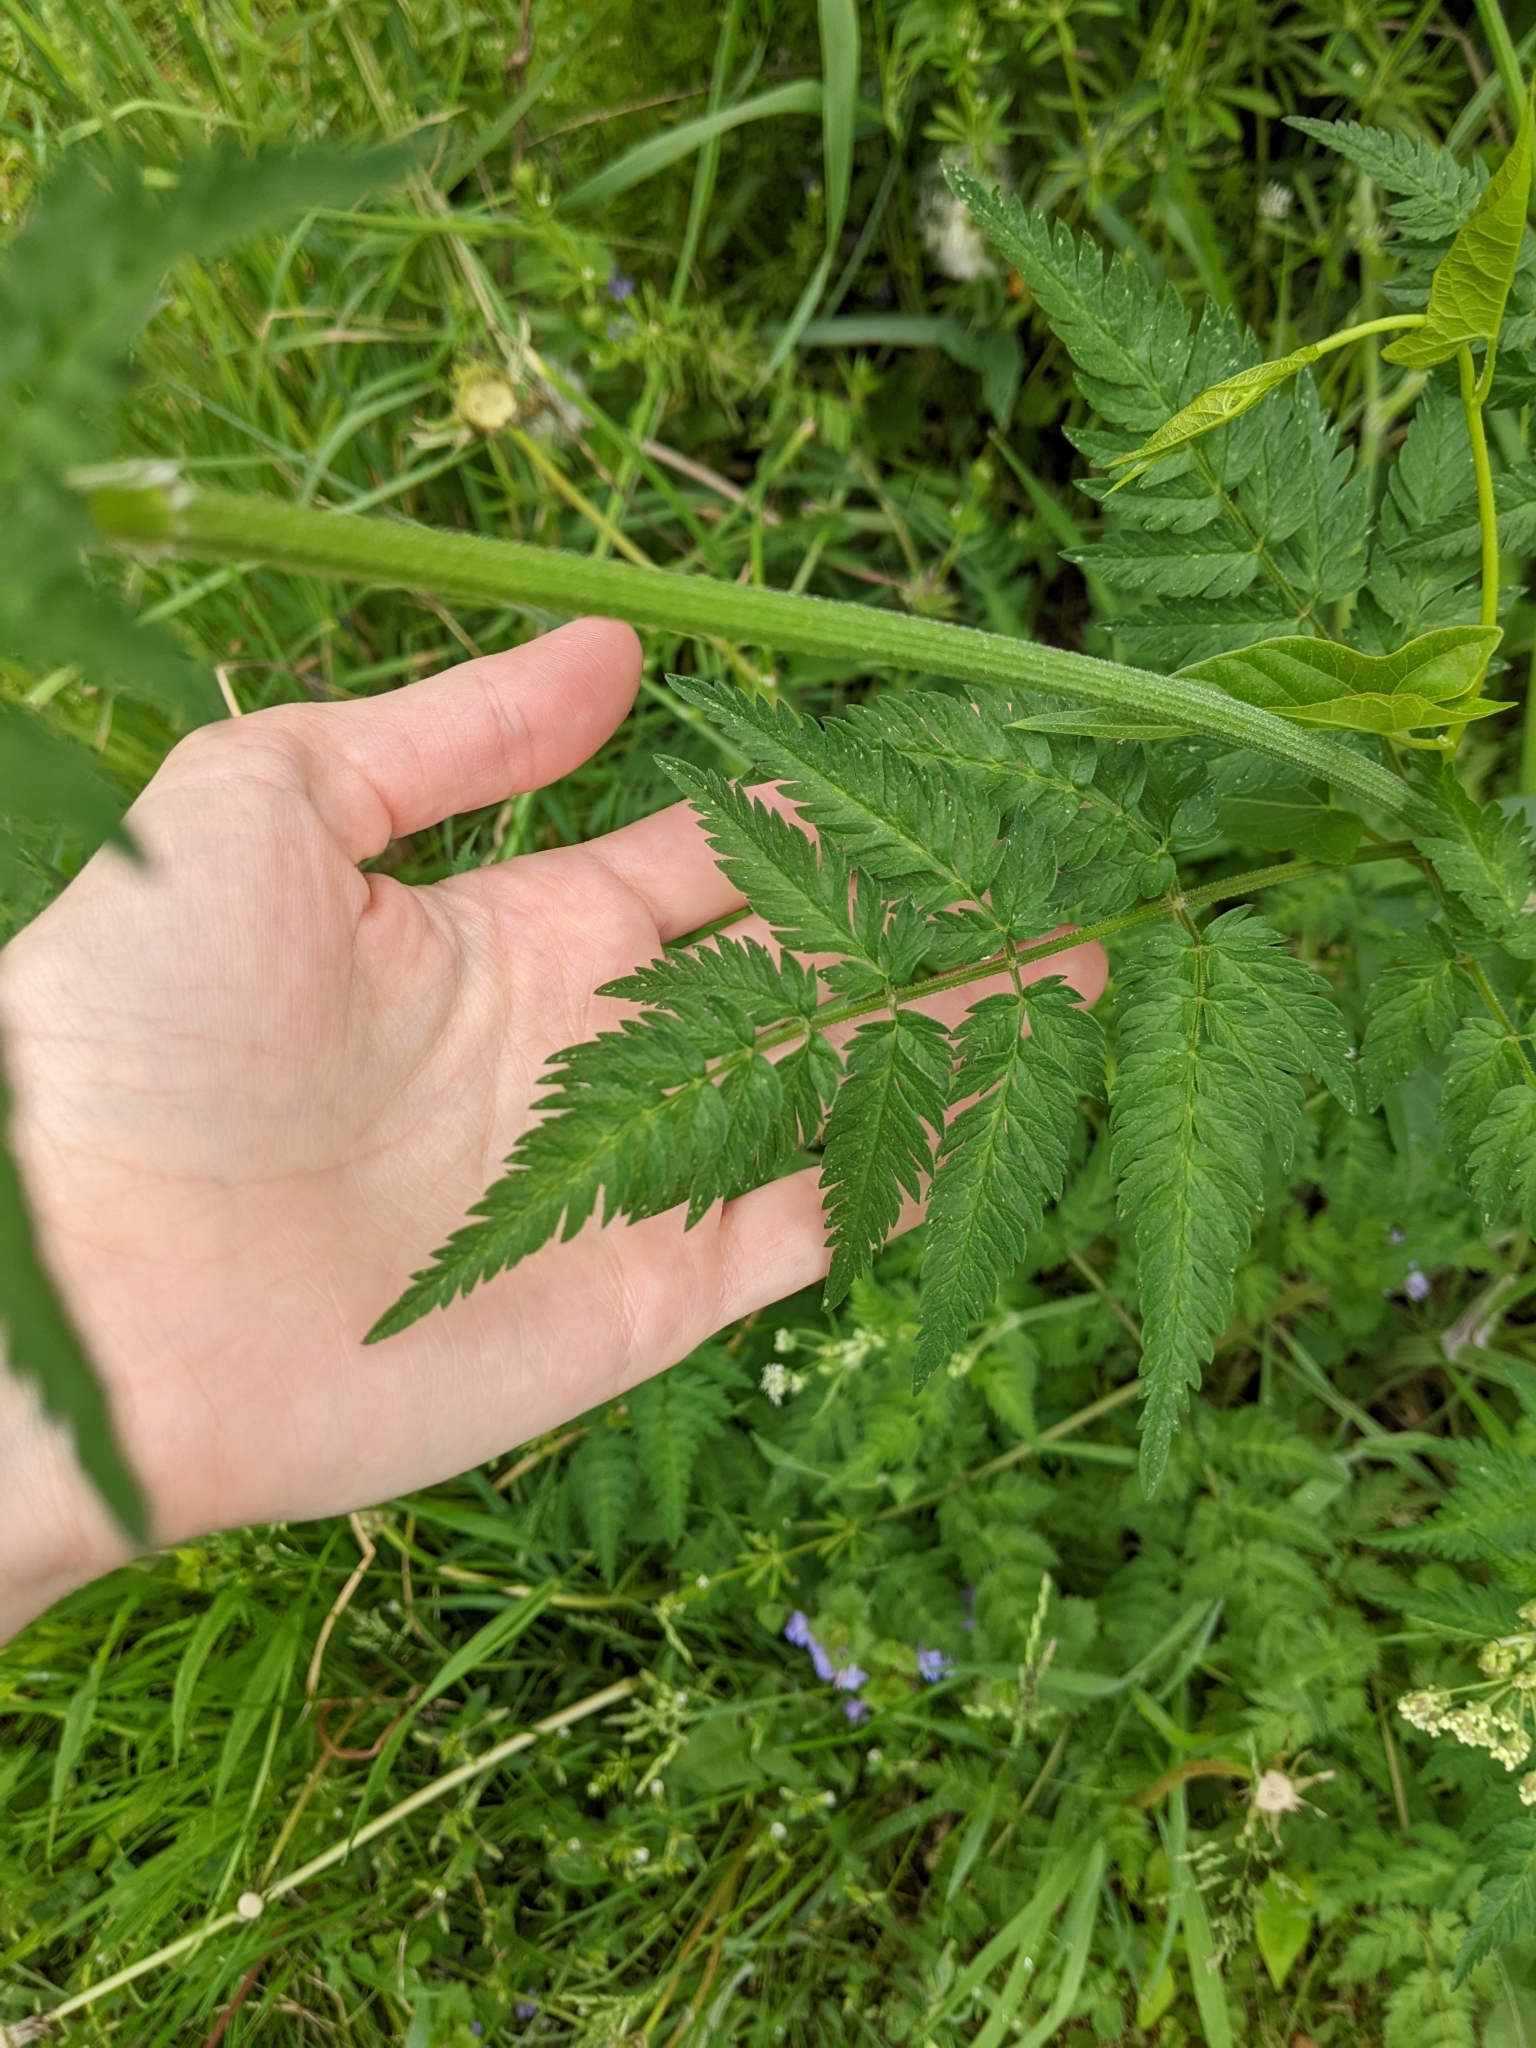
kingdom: Plantae
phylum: Tracheophyta
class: Magnoliopsida
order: Apiales
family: Apiaceae
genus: Anthriscus
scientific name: Anthriscus sylvestris
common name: Cow parsley
